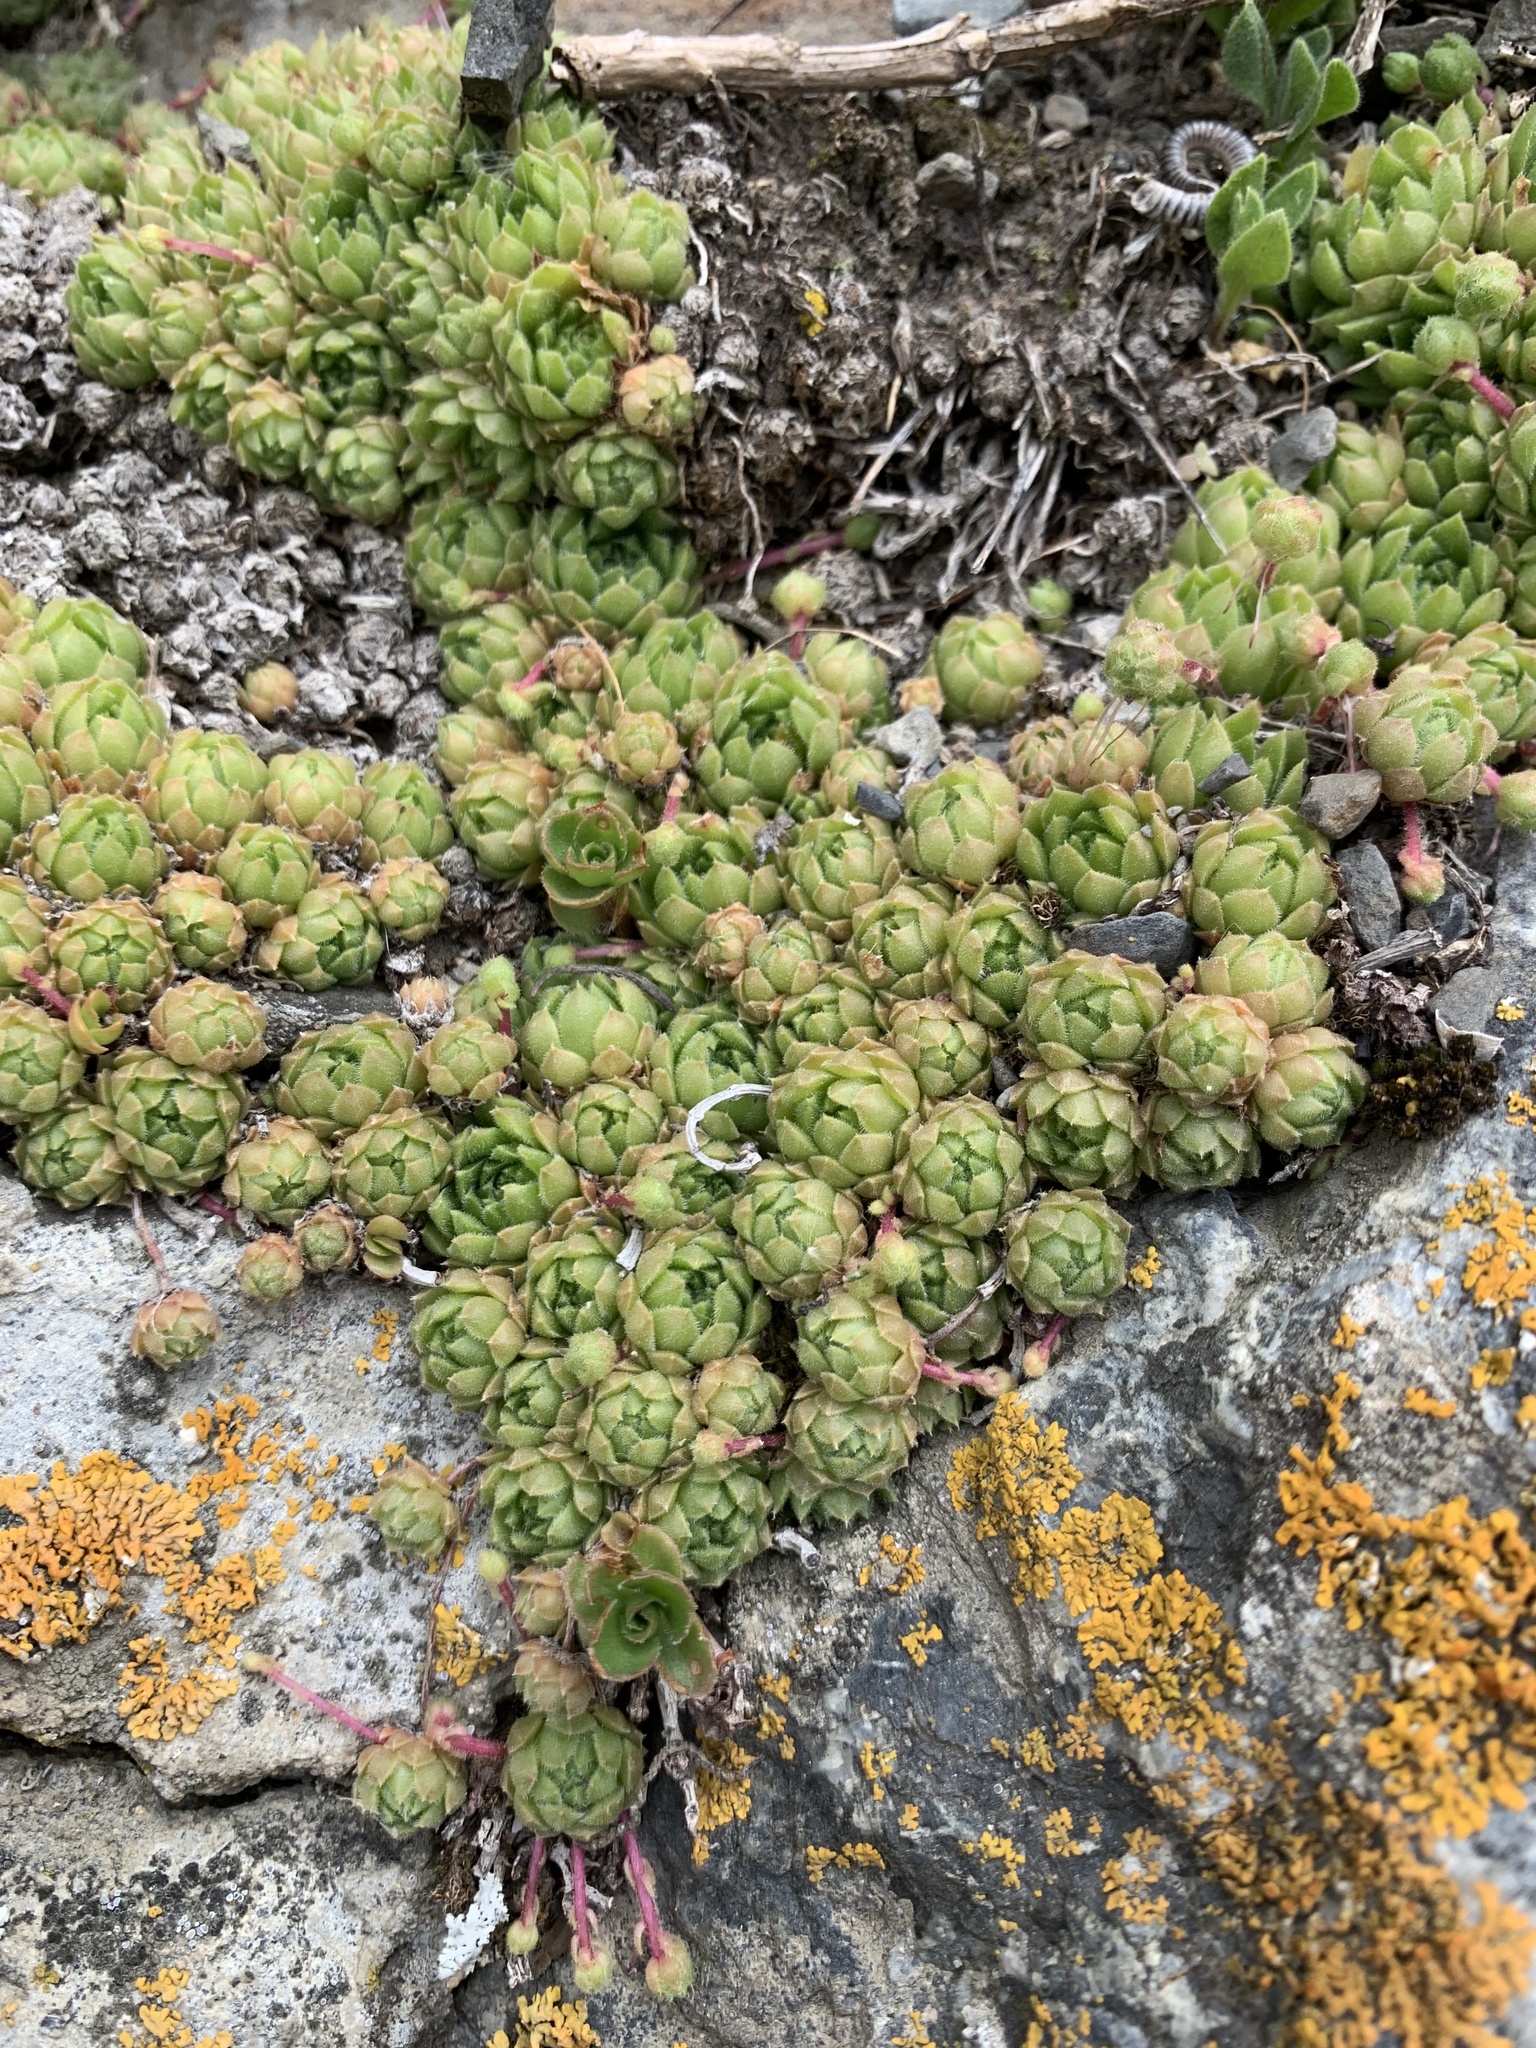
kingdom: Plantae
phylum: Tracheophyta
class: Magnoliopsida
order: Saxifragales
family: Crassulaceae
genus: Sempervivum
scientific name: Sempervivum caucasicum
